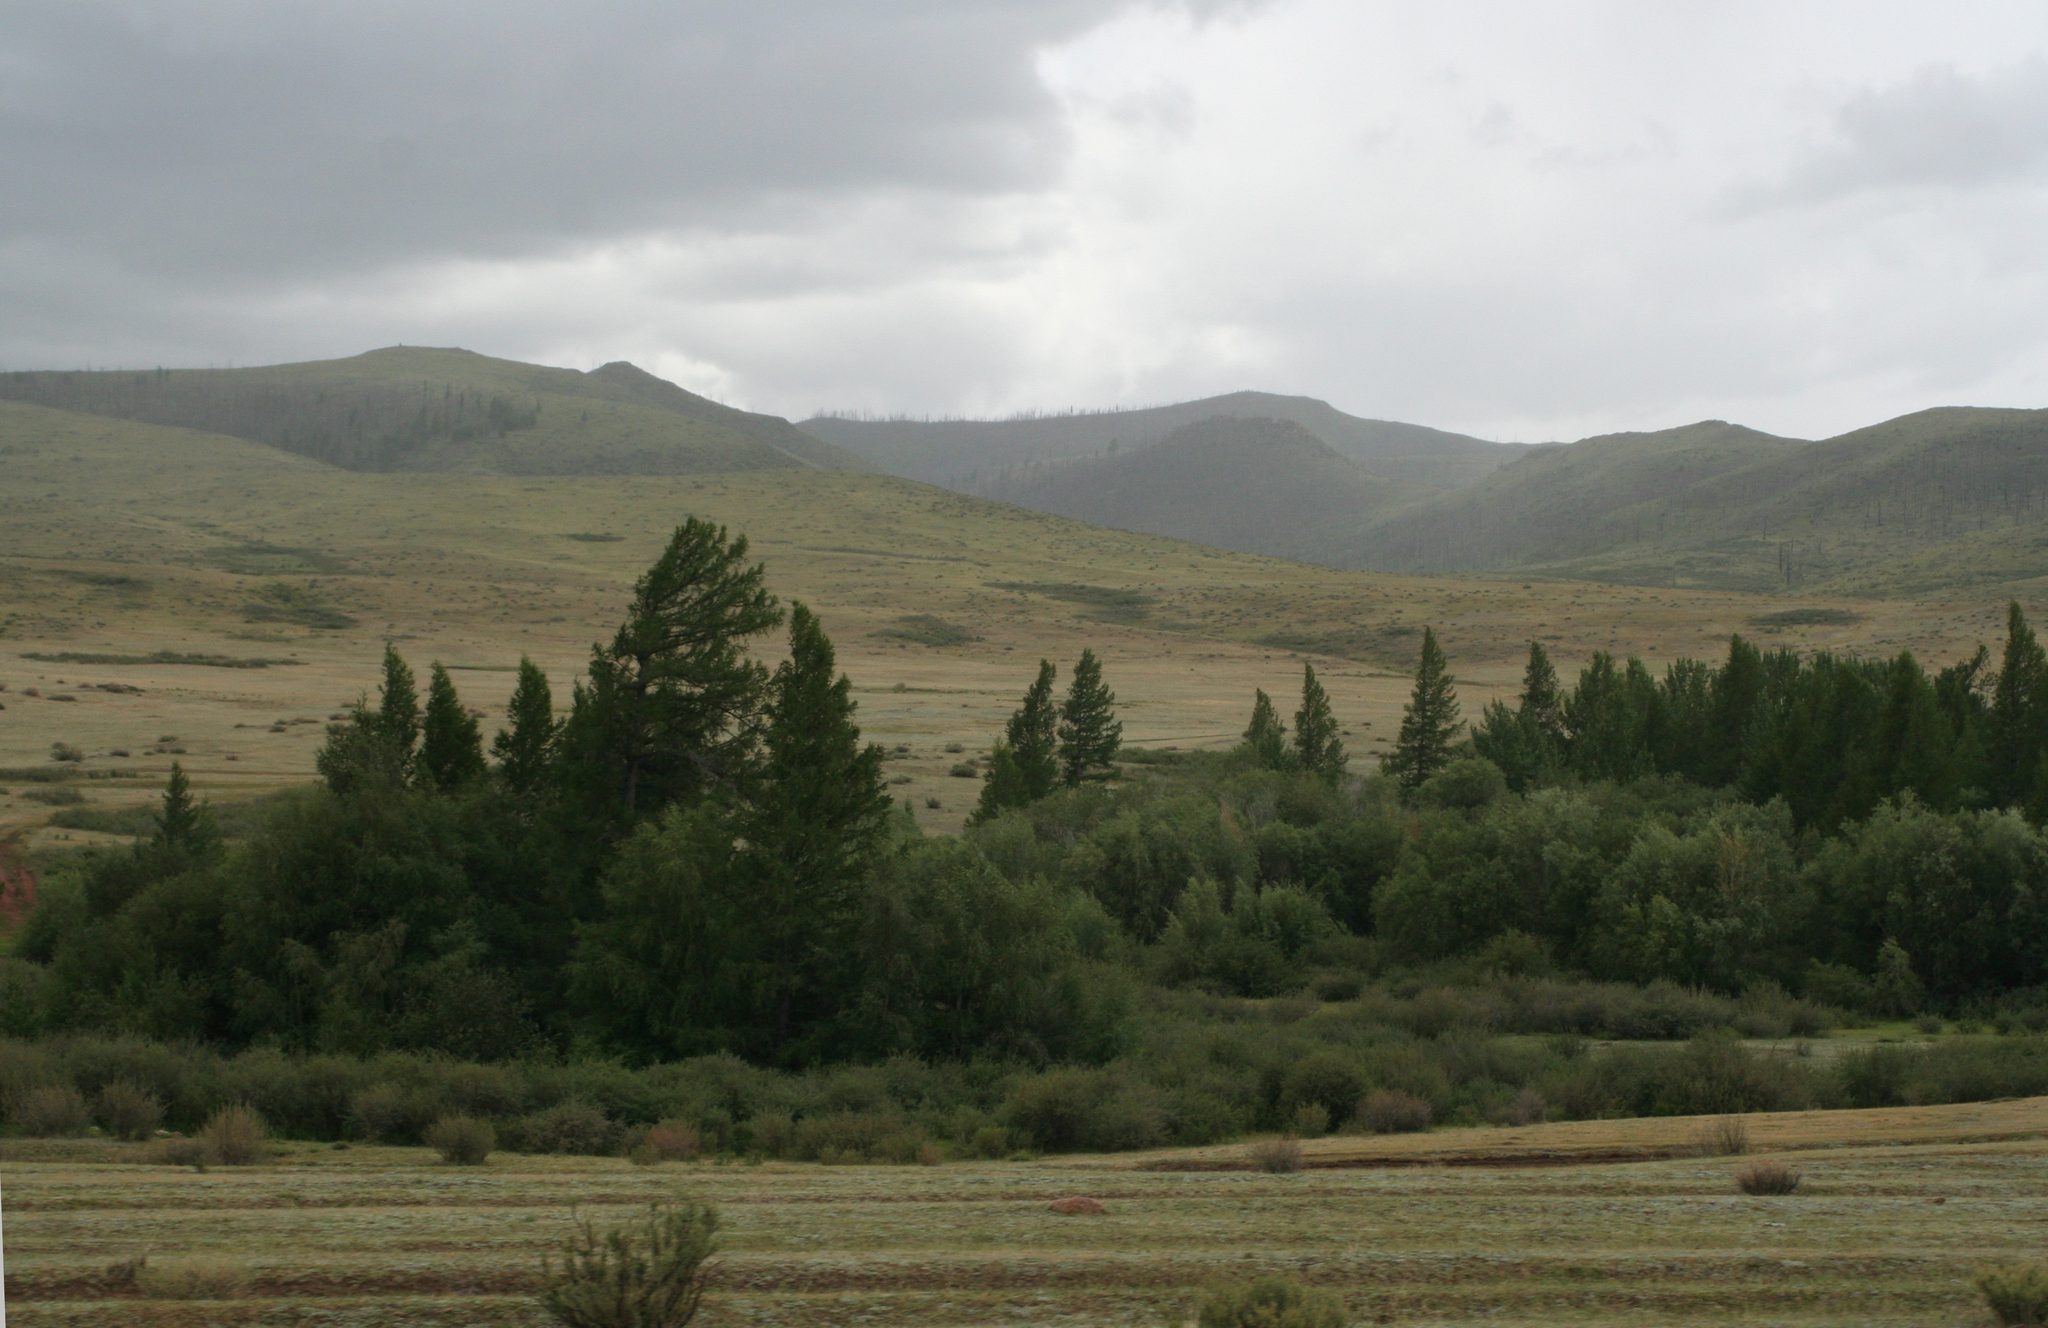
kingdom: Plantae
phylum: Tracheophyta
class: Pinopsida
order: Pinales
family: Pinaceae
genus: Larix
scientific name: Larix sibirica
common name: Siberian larch
